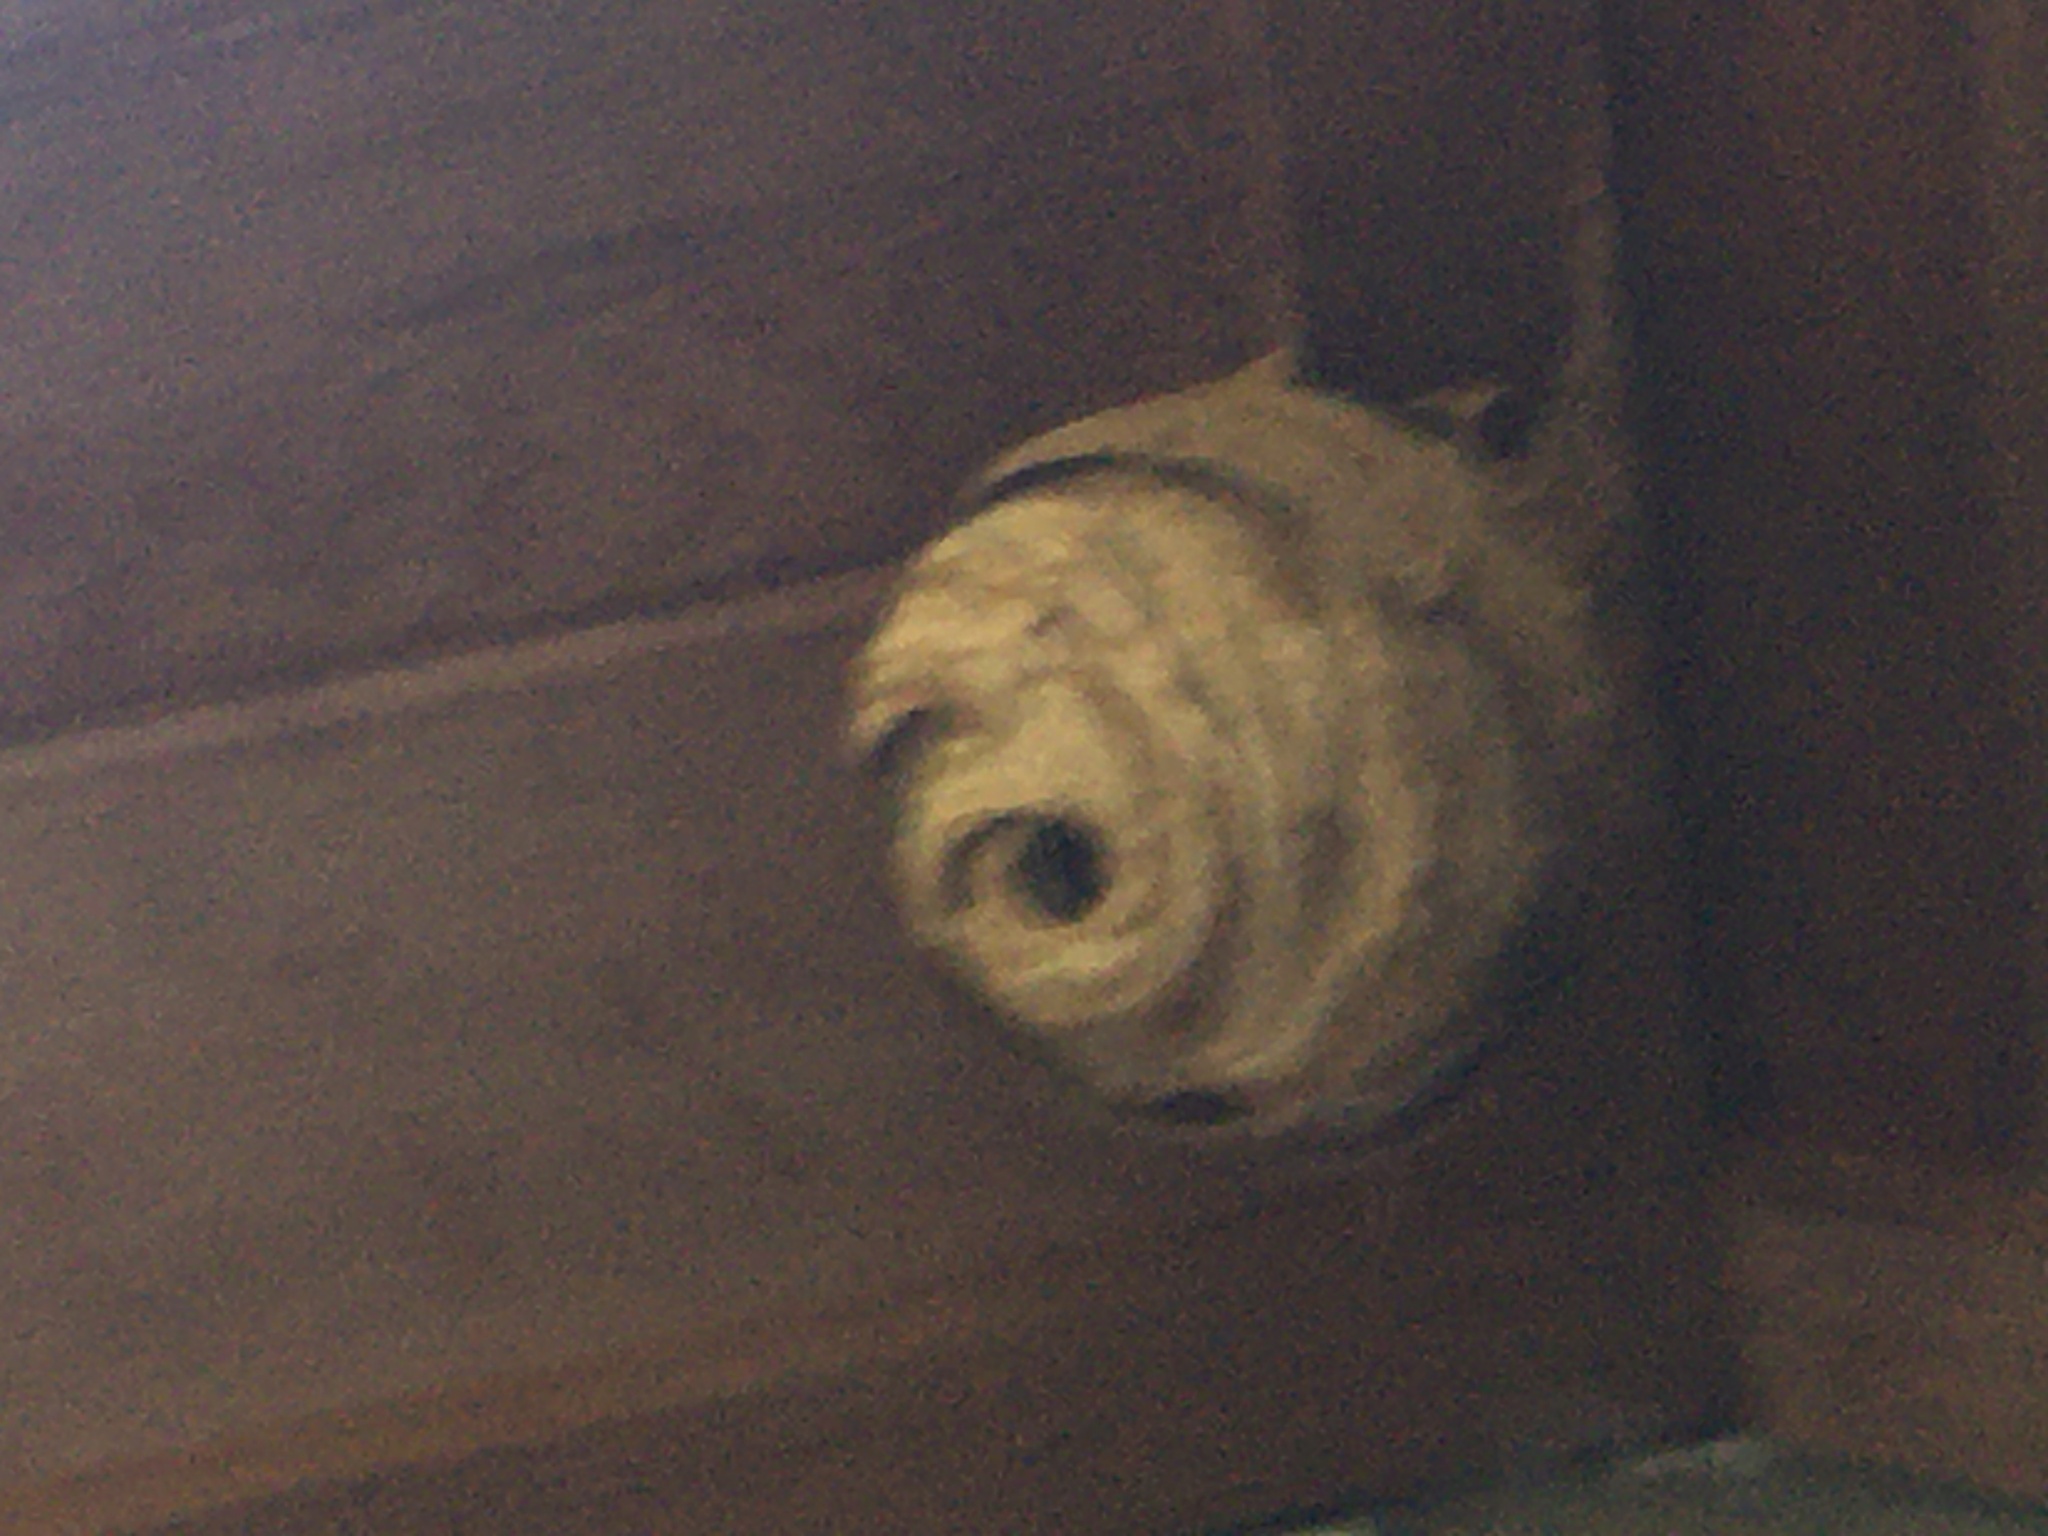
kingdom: Animalia
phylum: Arthropoda
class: Insecta
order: Hymenoptera
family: Vespidae
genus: Vespa
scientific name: Vespa velutina
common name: Asian hornet
